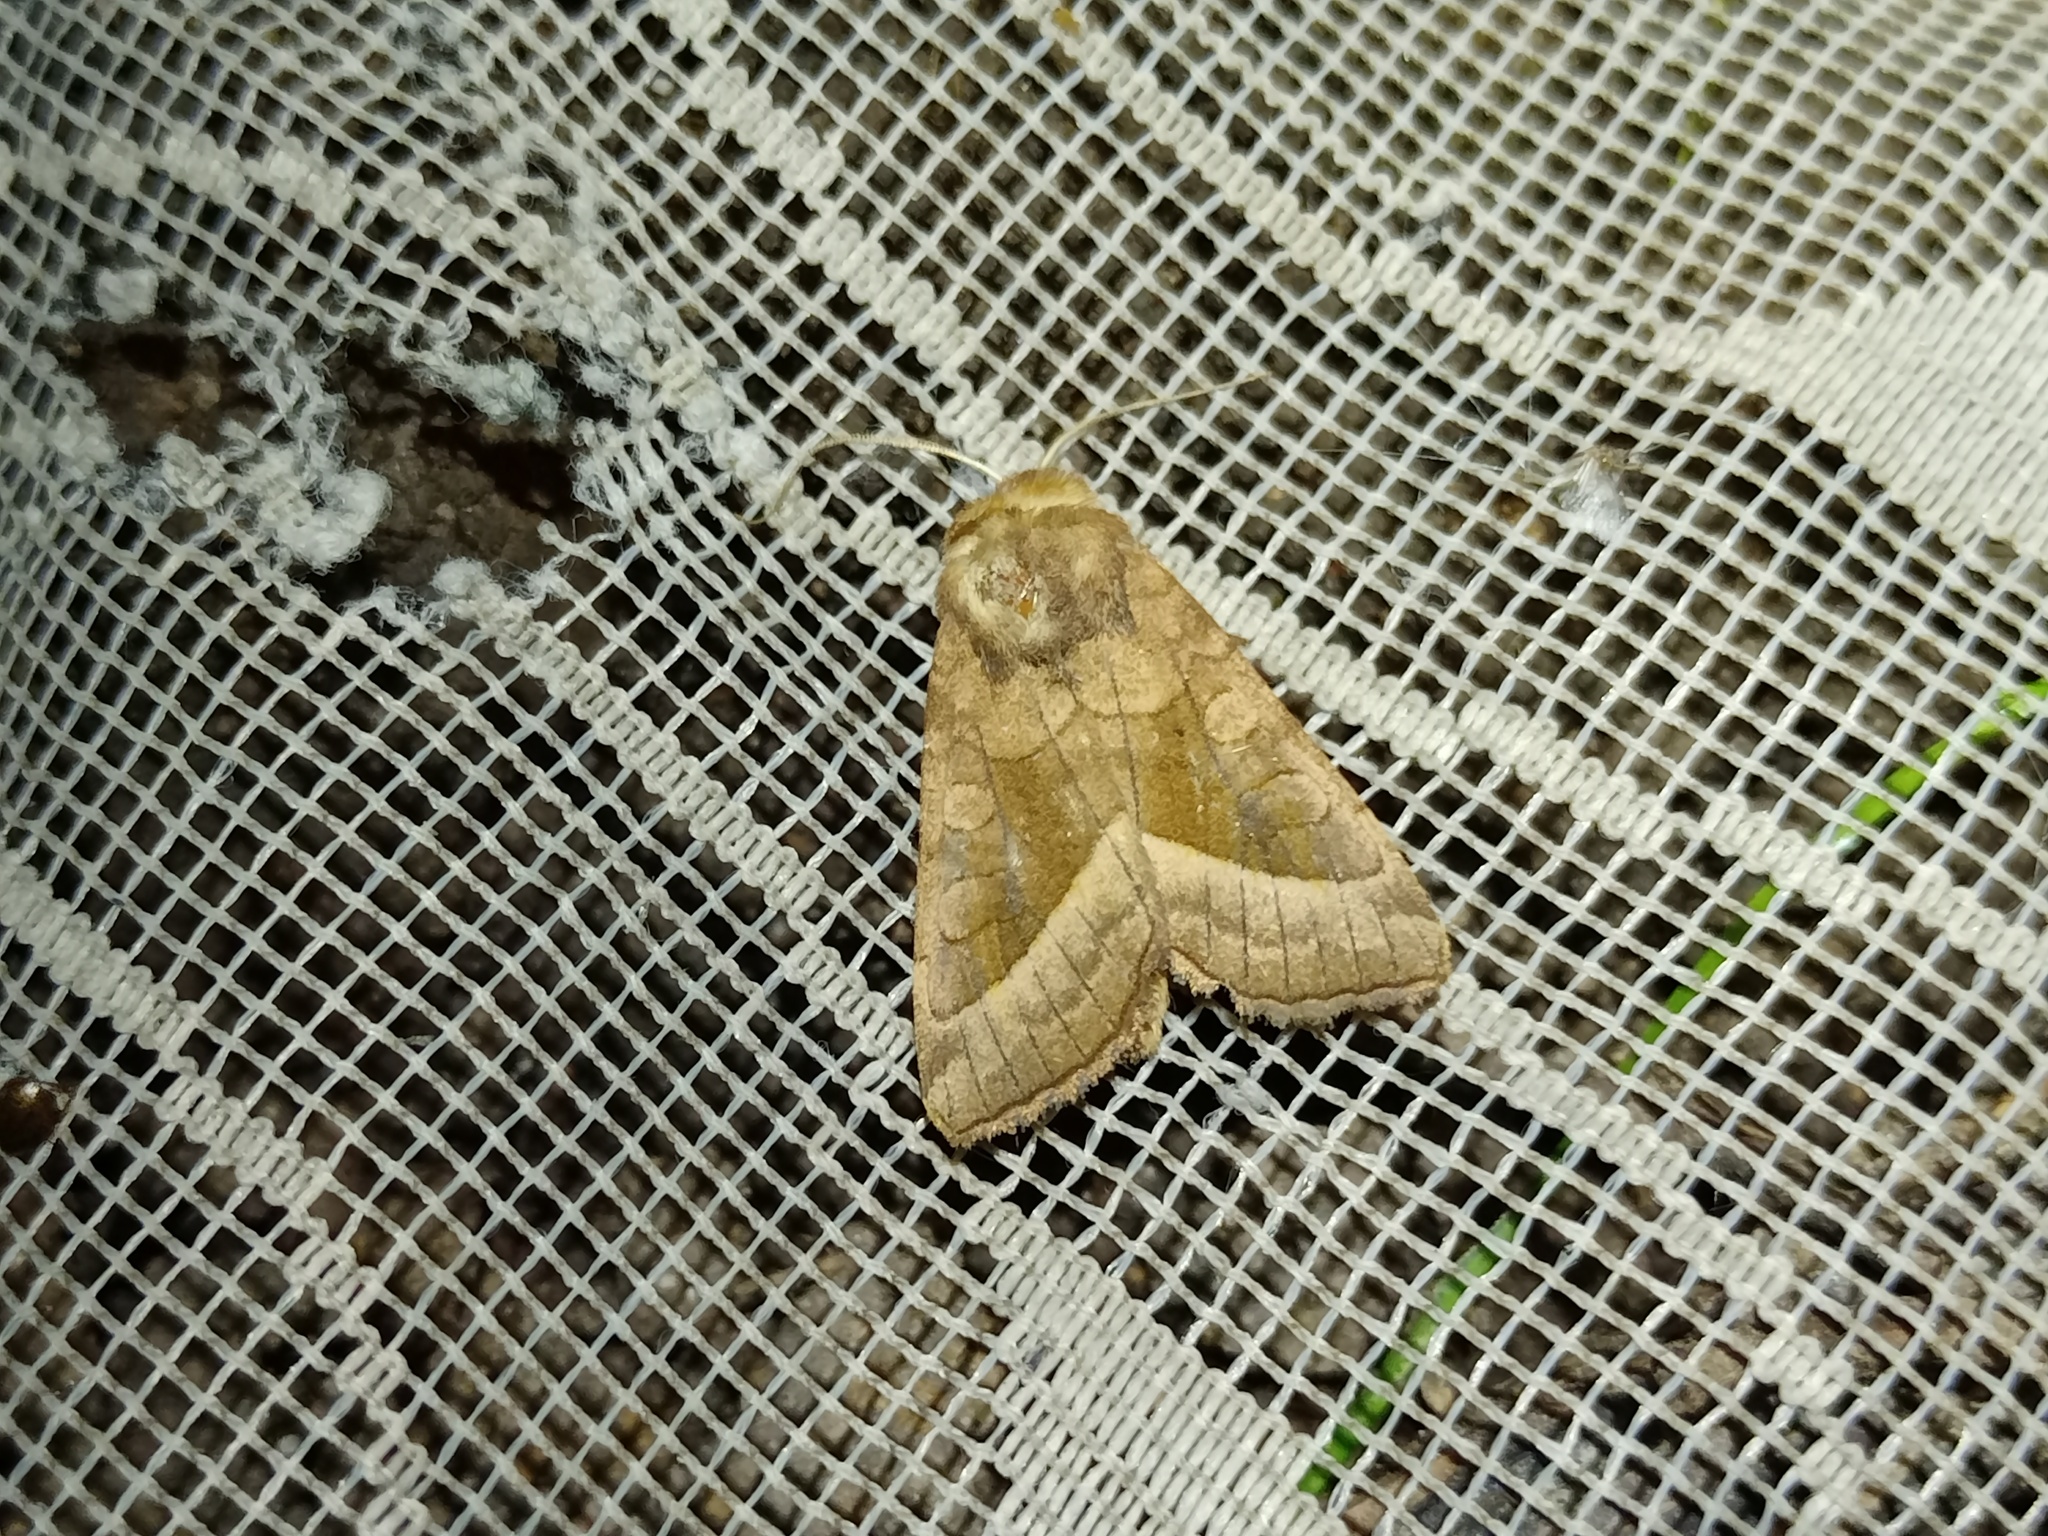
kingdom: Animalia
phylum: Arthropoda
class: Insecta
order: Lepidoptera
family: Noctuidae
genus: Hydraecia
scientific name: Hydraecia micacea
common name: Rosy rustic
